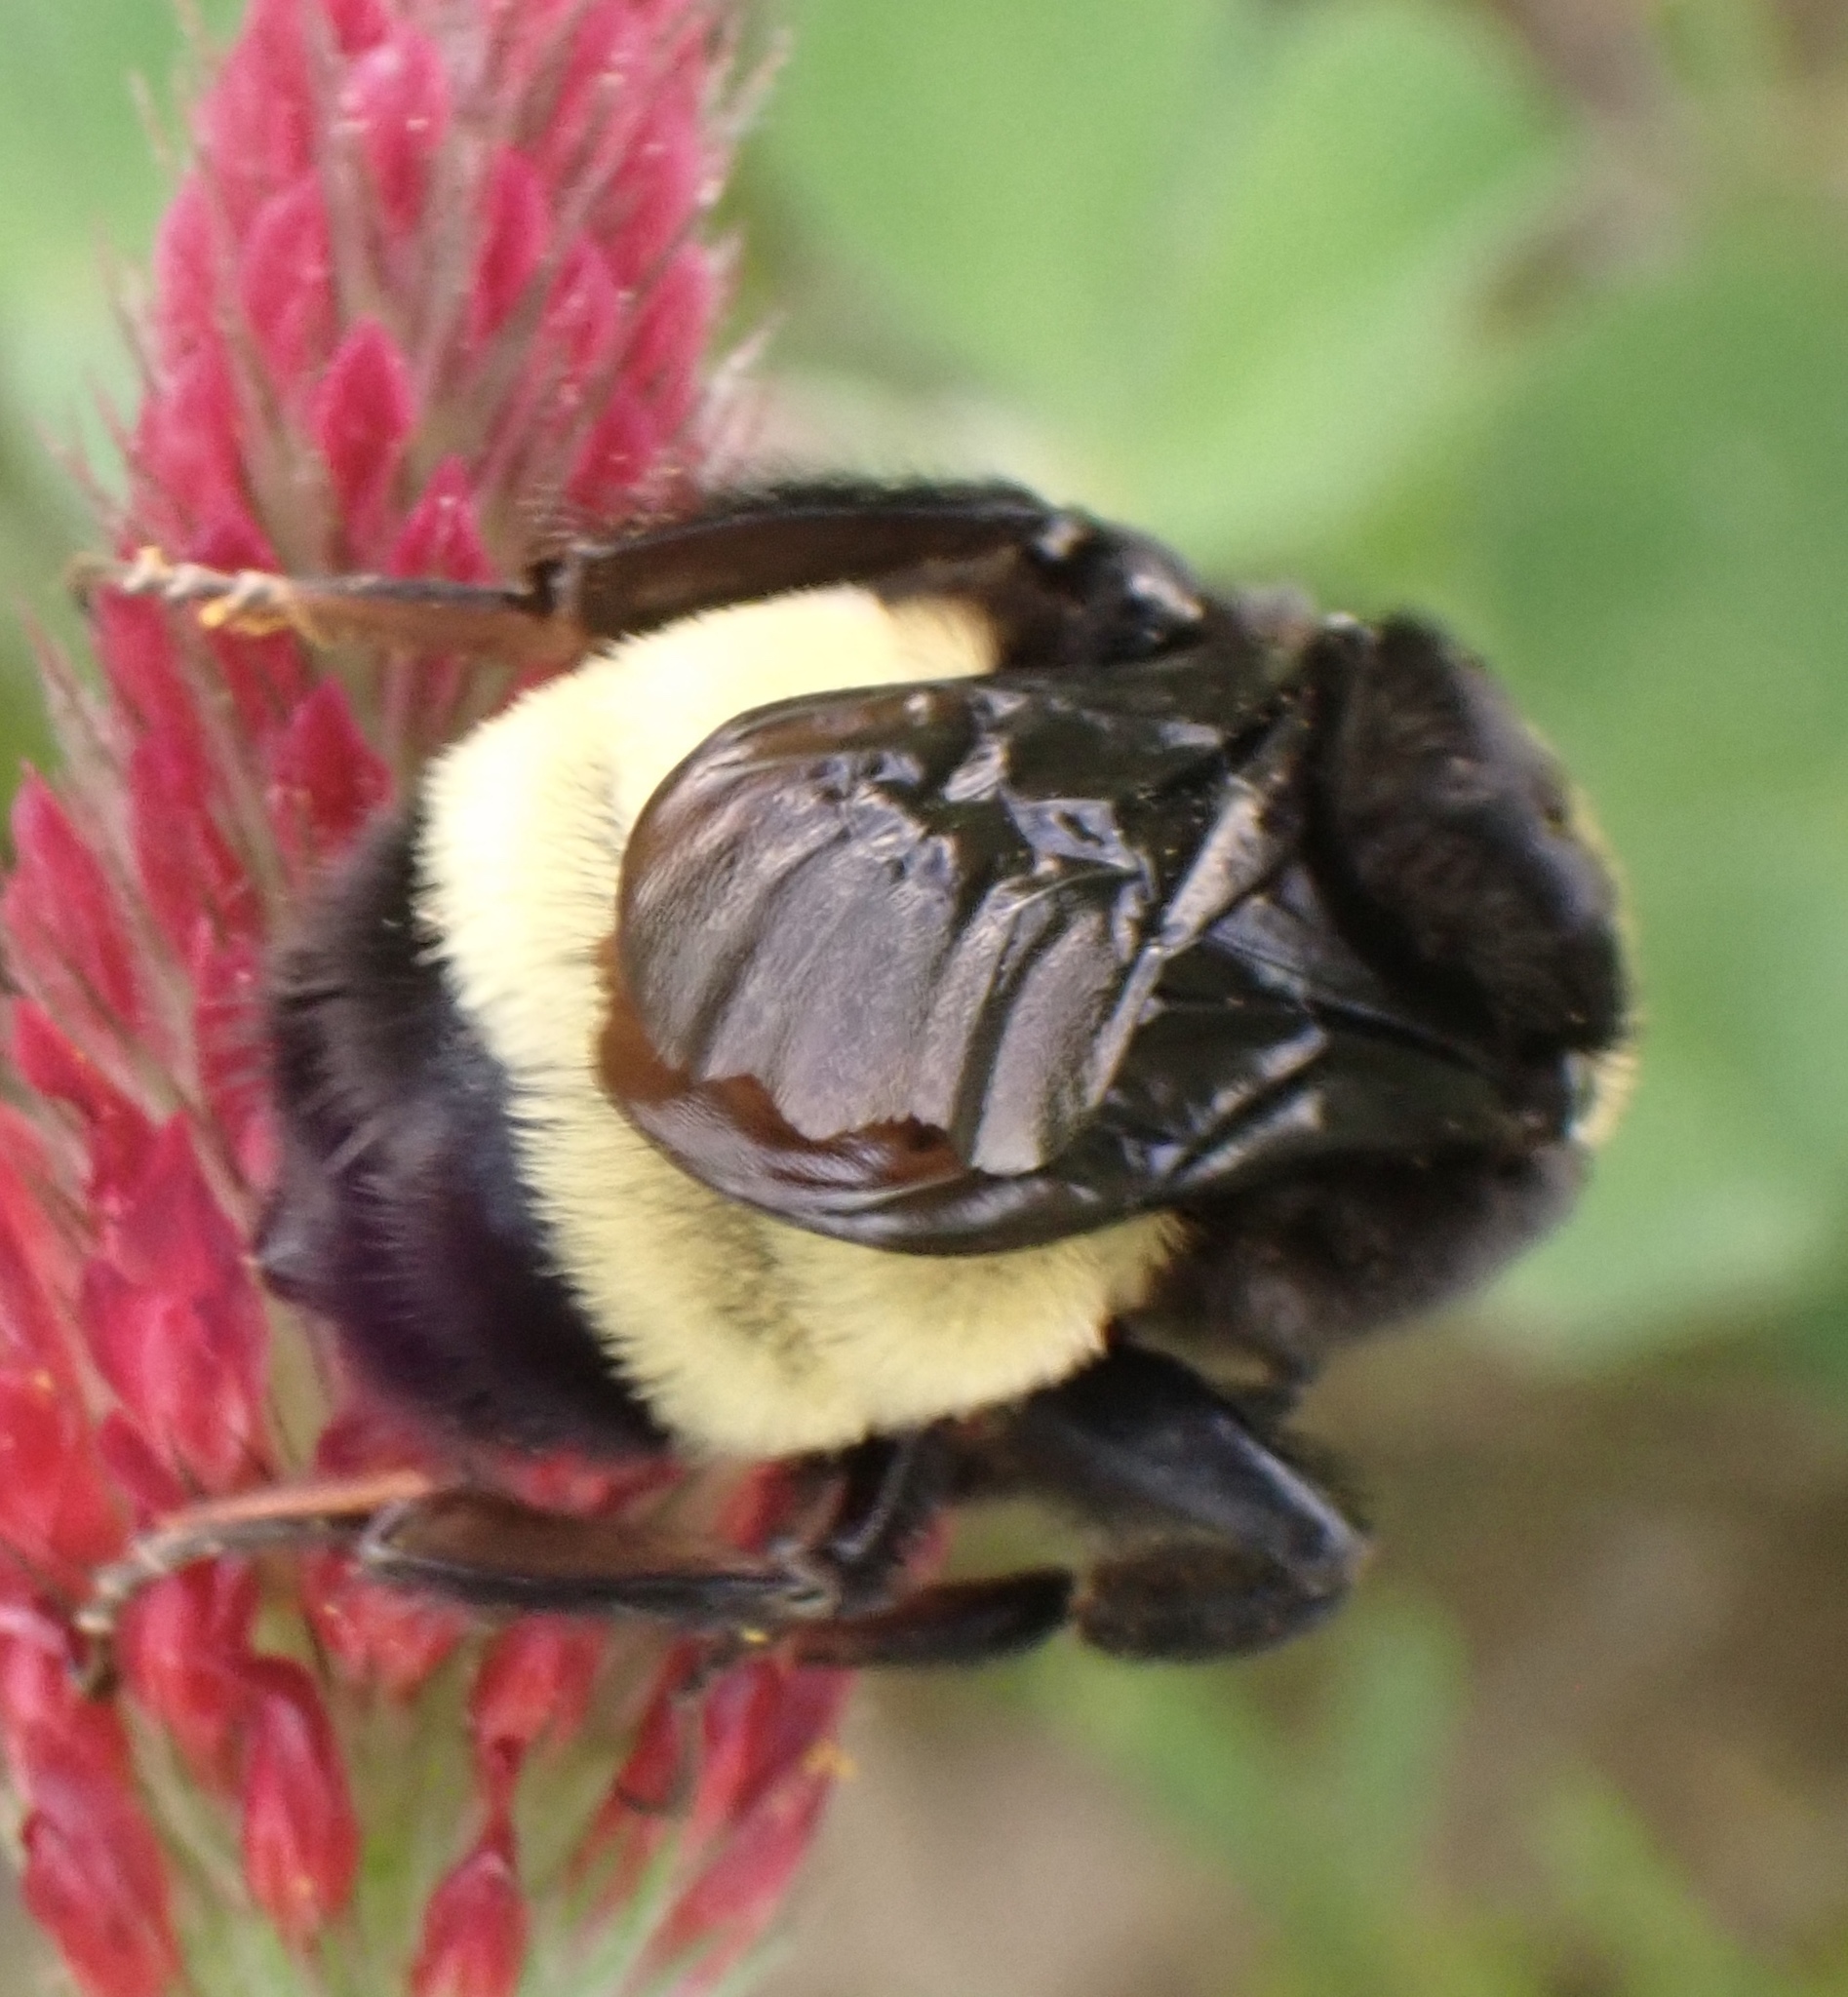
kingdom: Animalia
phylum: Arthropoda
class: Insecta
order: Hymenoptera
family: Apidae
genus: Bombus
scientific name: Bombus pensylvanicus
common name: Bumble bee
